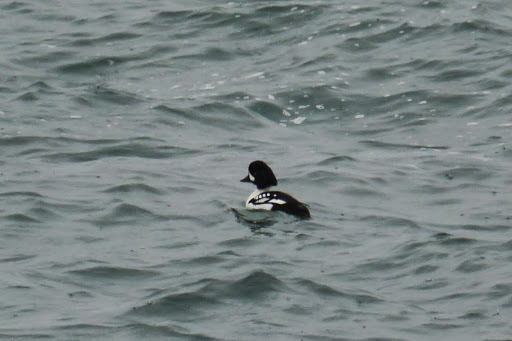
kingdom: Animalia
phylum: Chordata
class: Aves
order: Anseriformes
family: Anatidae
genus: Bucephala
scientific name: Bucephala islandica
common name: Barrow's goldeneye
